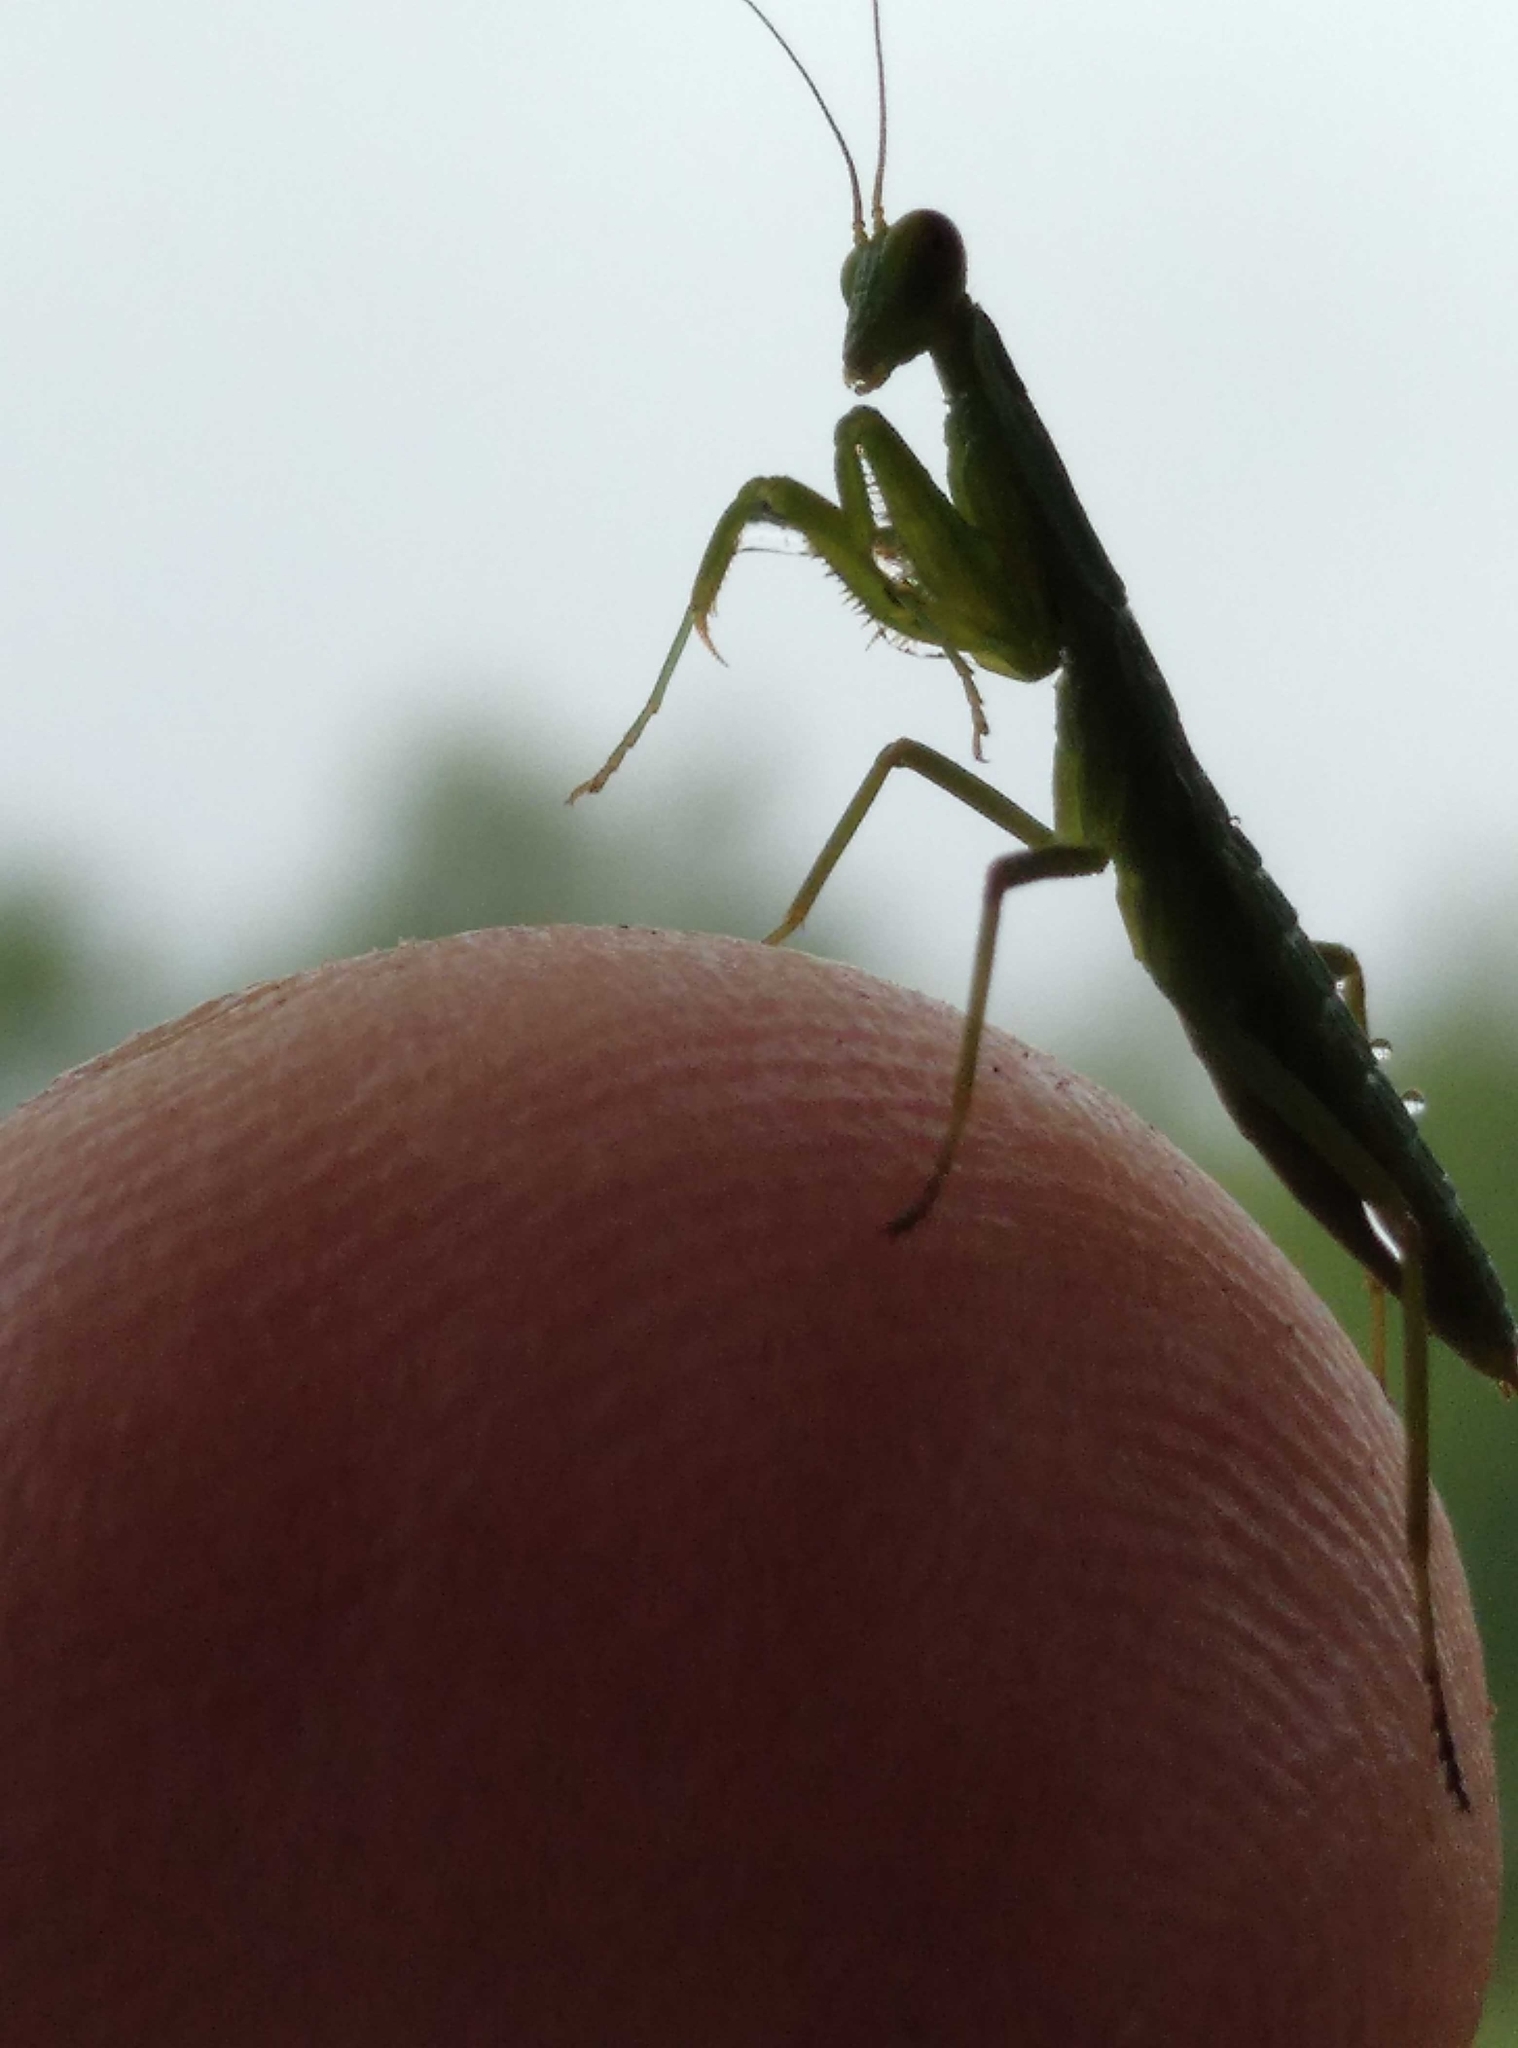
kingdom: Animalia
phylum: Arthropoda
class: Insecta
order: Mantodea
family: Mantidae
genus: Orthodera
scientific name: Orthodera novaezealandiae
